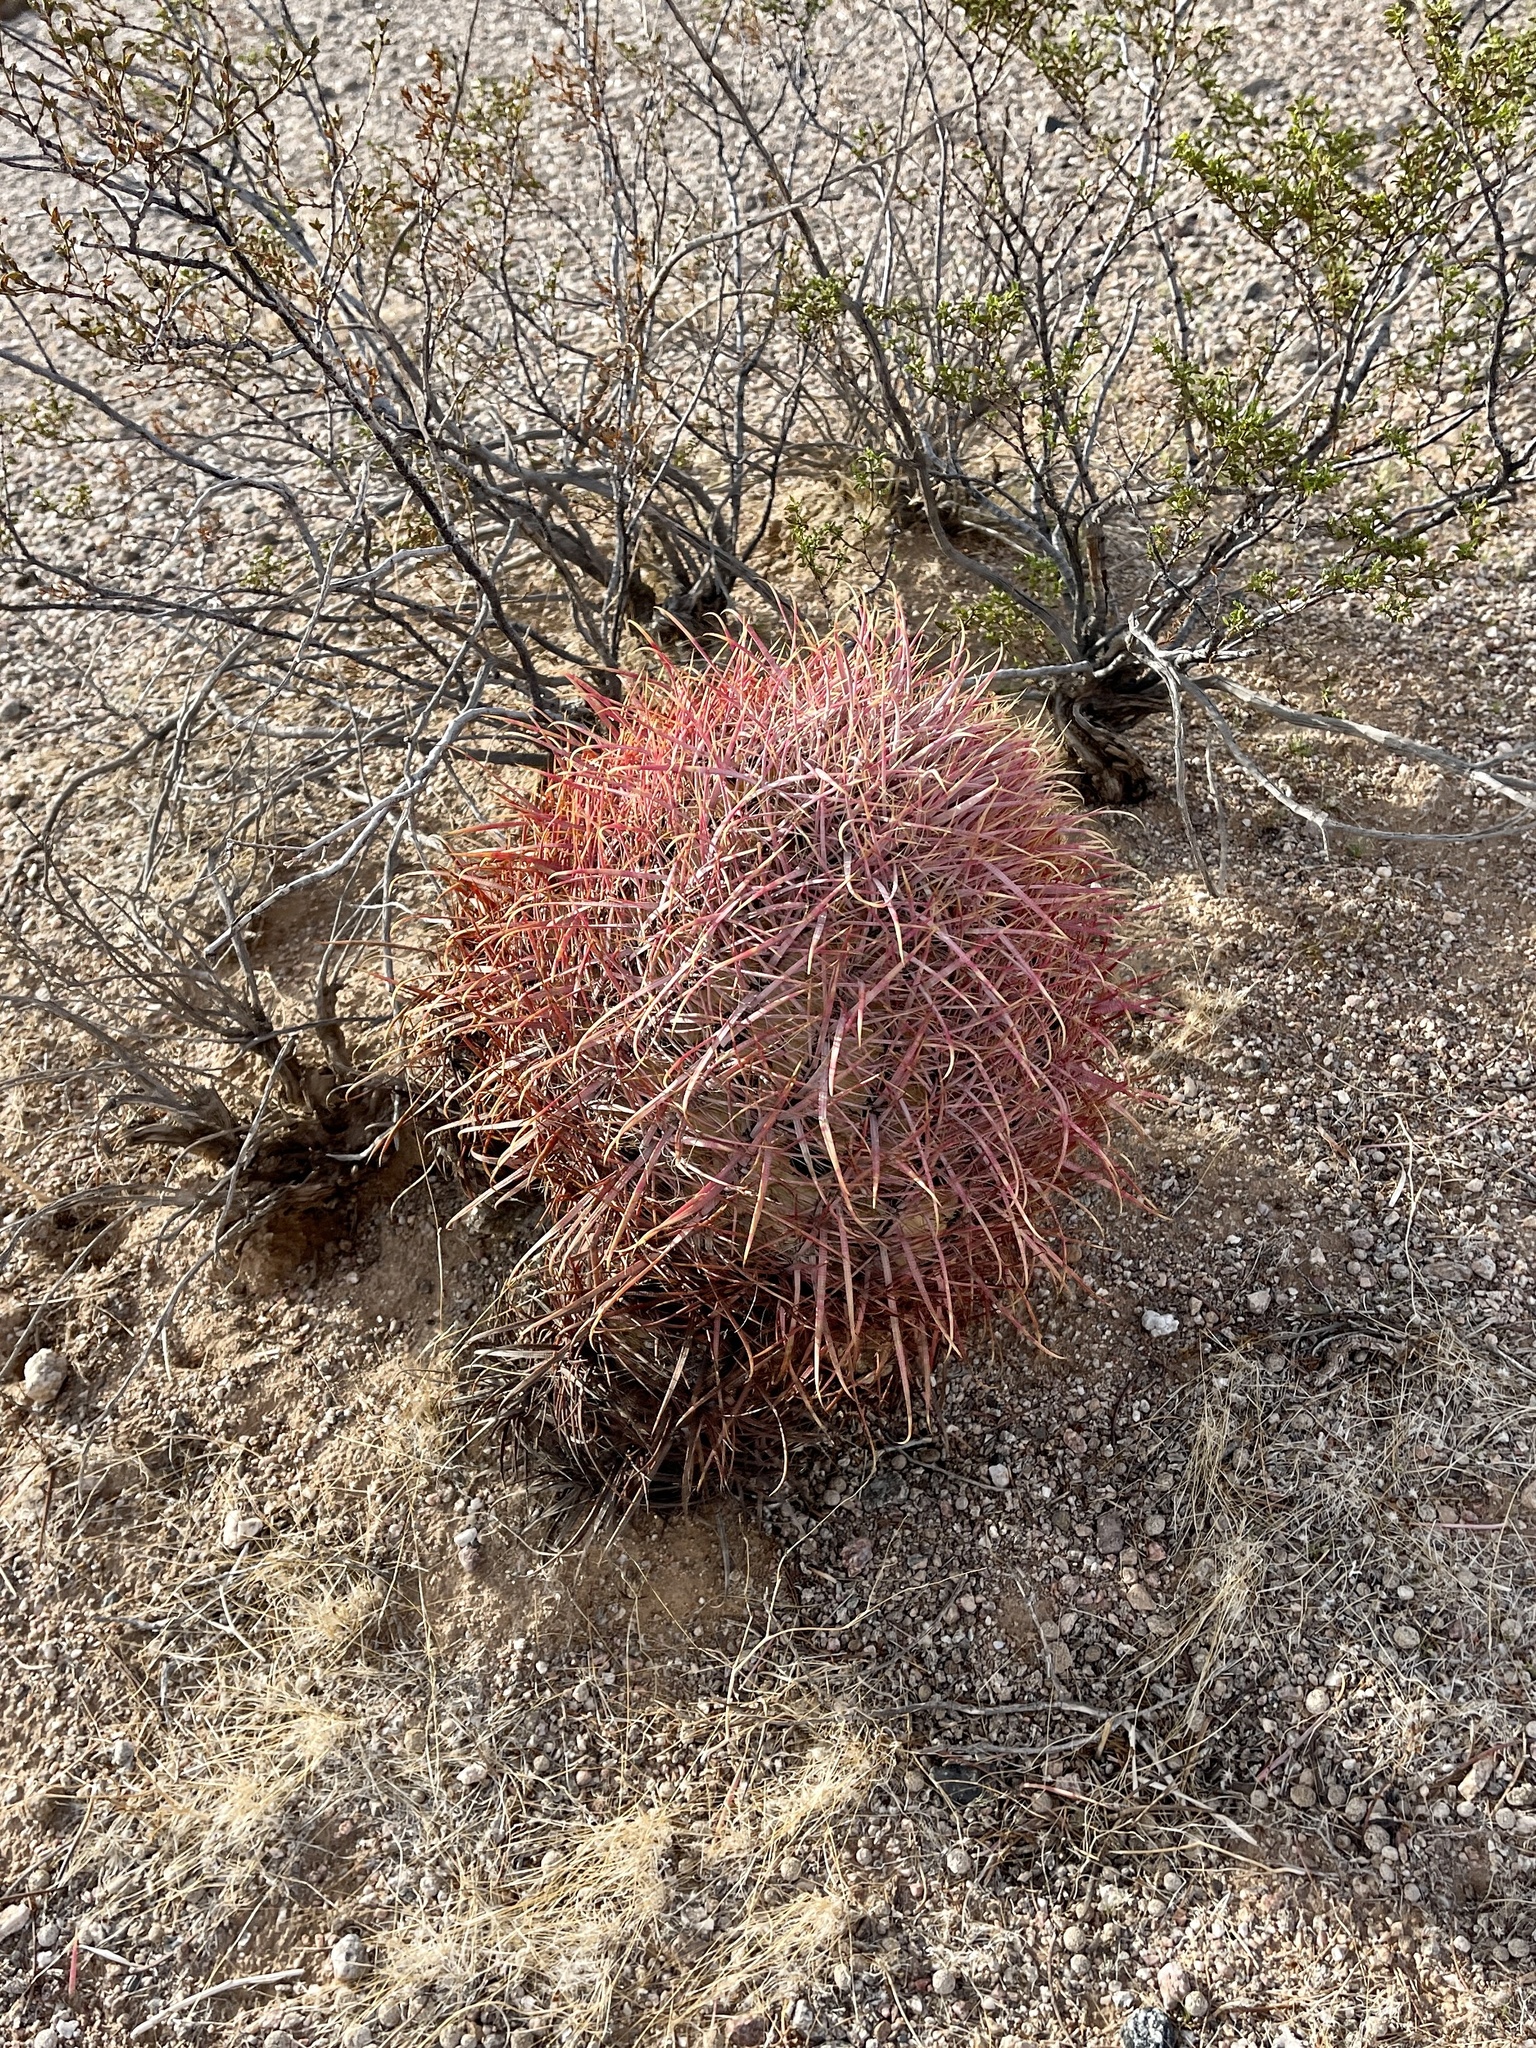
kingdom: Plantae
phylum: Tracheophyta
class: Magnoliopsida
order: Caryophyllales
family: Cactaceae
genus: Ferocactus
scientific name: Ferocactus cylindraceus
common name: California barrel cactus
